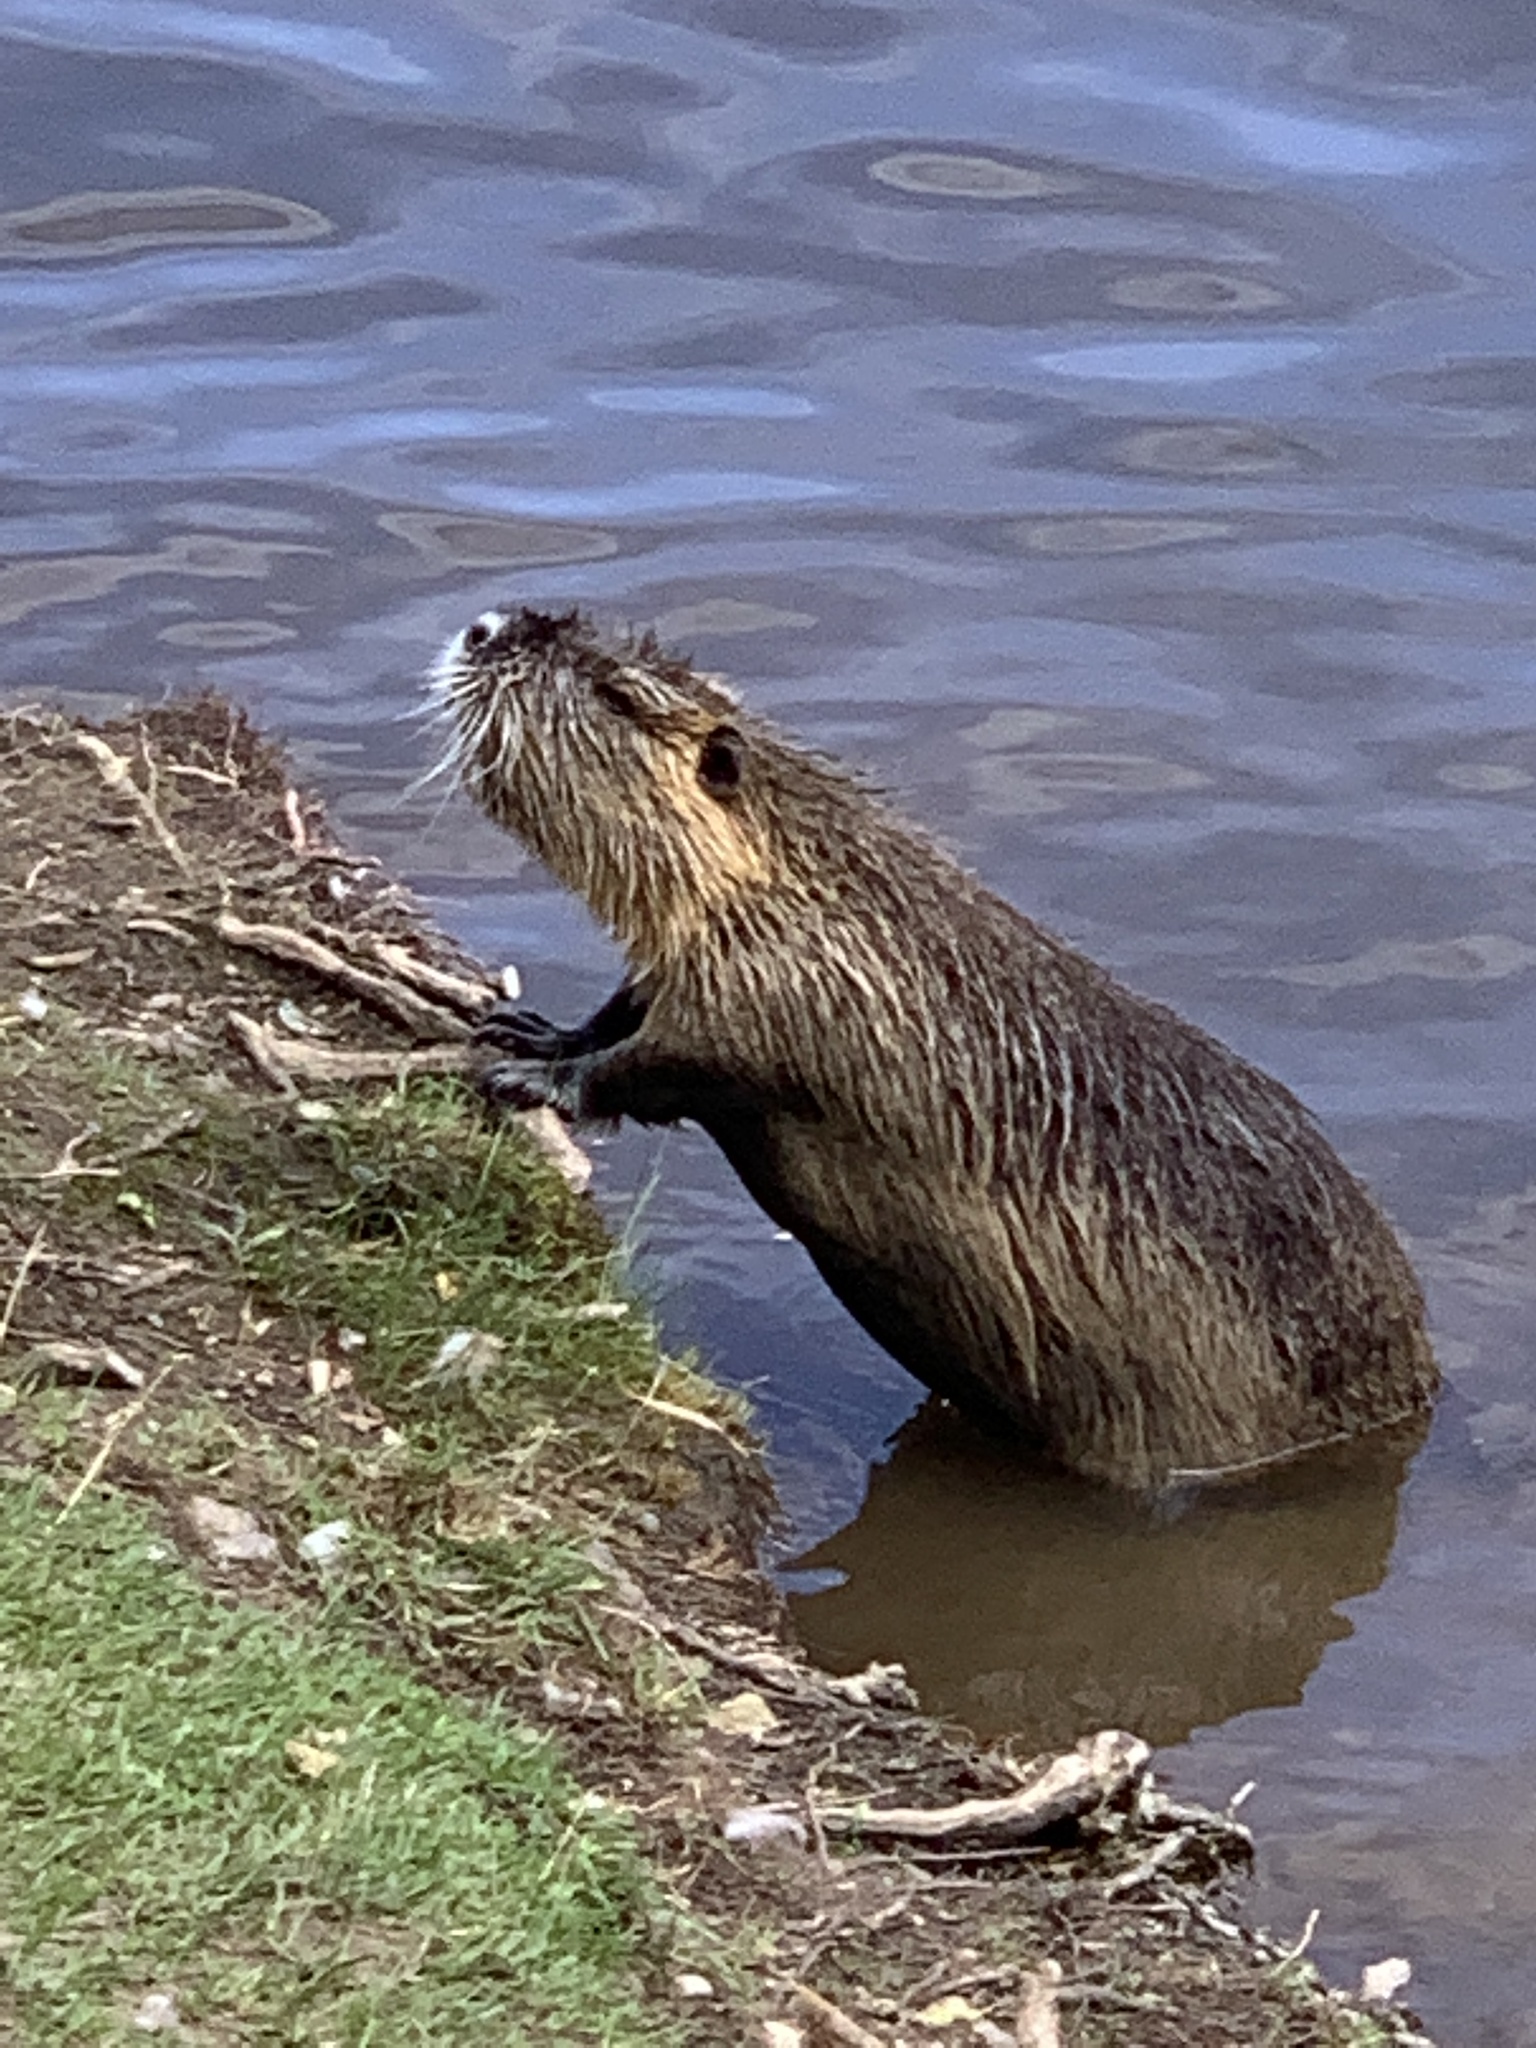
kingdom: Animalia
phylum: Chordata
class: Mammalia
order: Rodentia
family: Myocastoridae
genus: Myocastor
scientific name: Myocastor coypus
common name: Coypu
